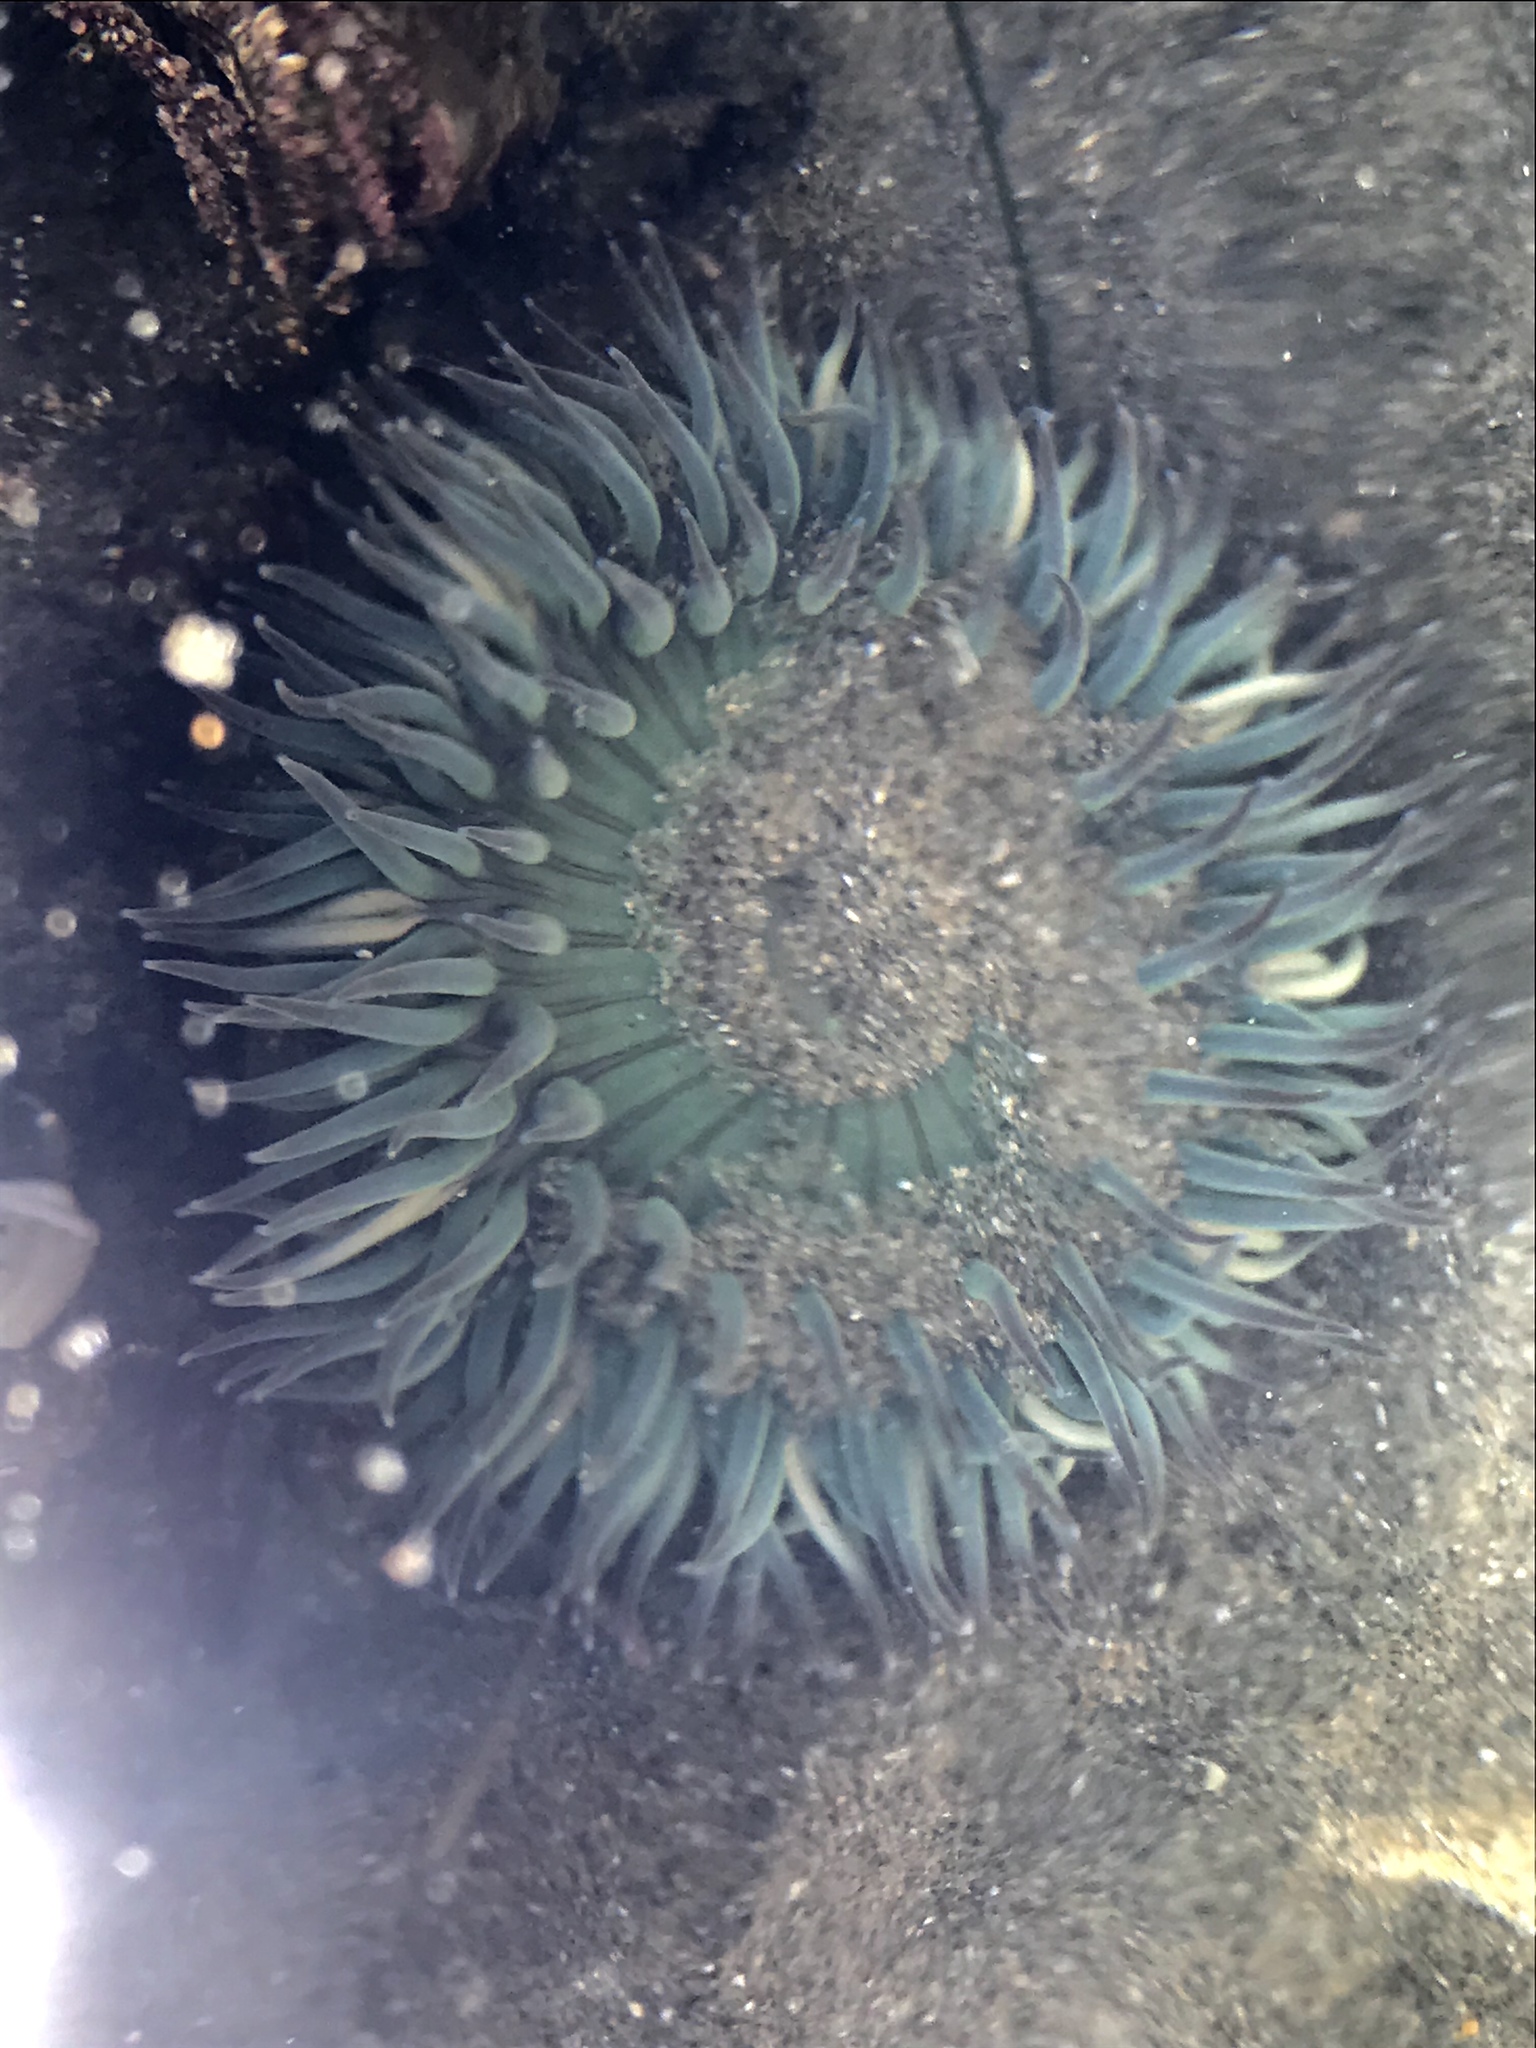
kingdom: Animalia
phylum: Cnidaria
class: Anthozoa
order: Actiniaria
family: Actiniidae
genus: Anthopleura
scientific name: Anthopleura sola
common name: Sun anemone
